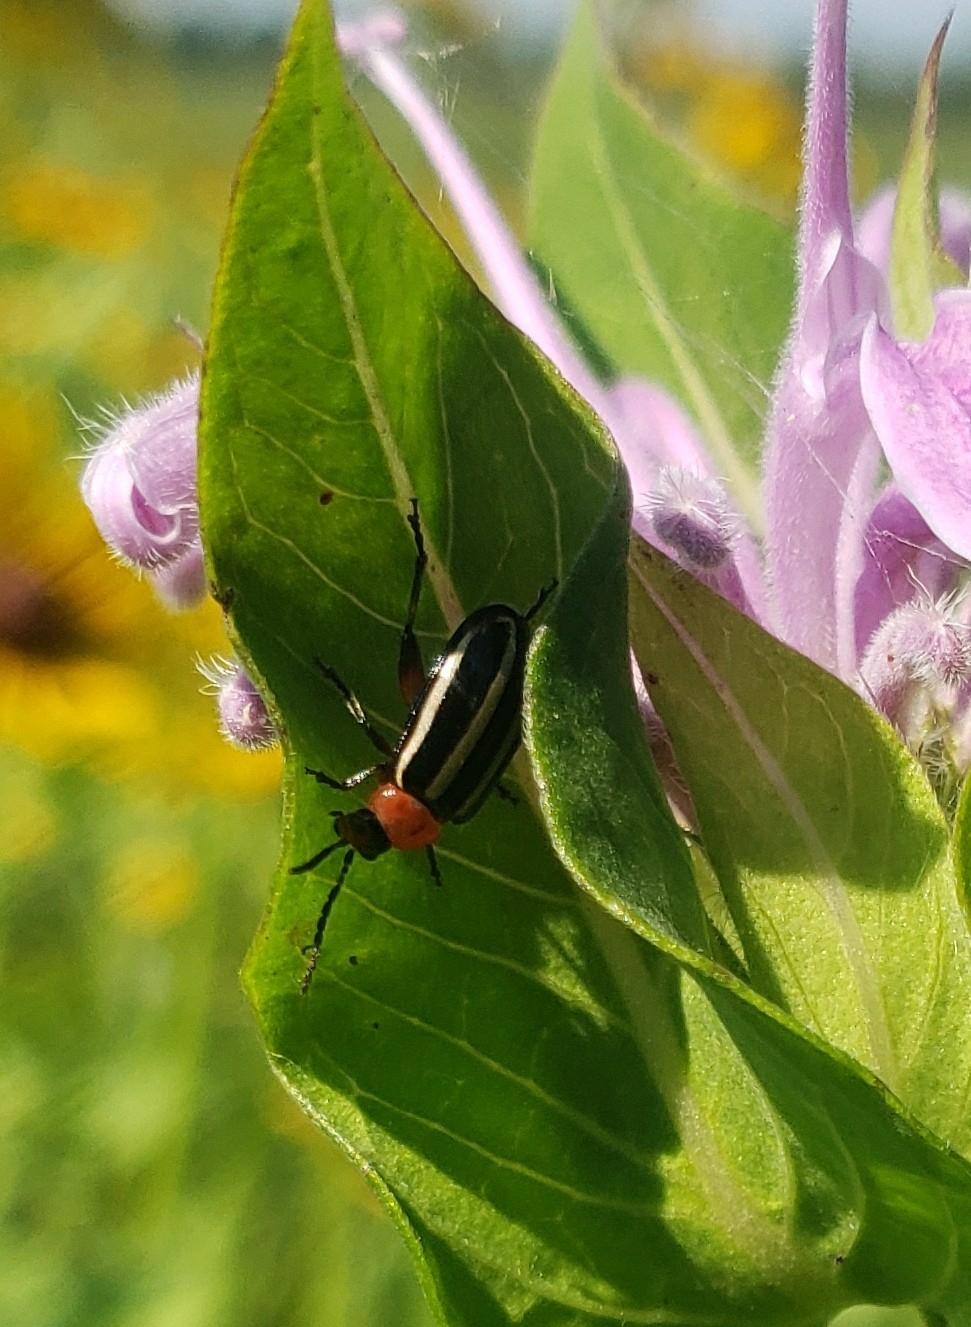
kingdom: Animalia
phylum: Arthropoda
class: Insecta
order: Coleoptera
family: Chrysomelidae
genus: Disonycha
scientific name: Disonycha glabrata
